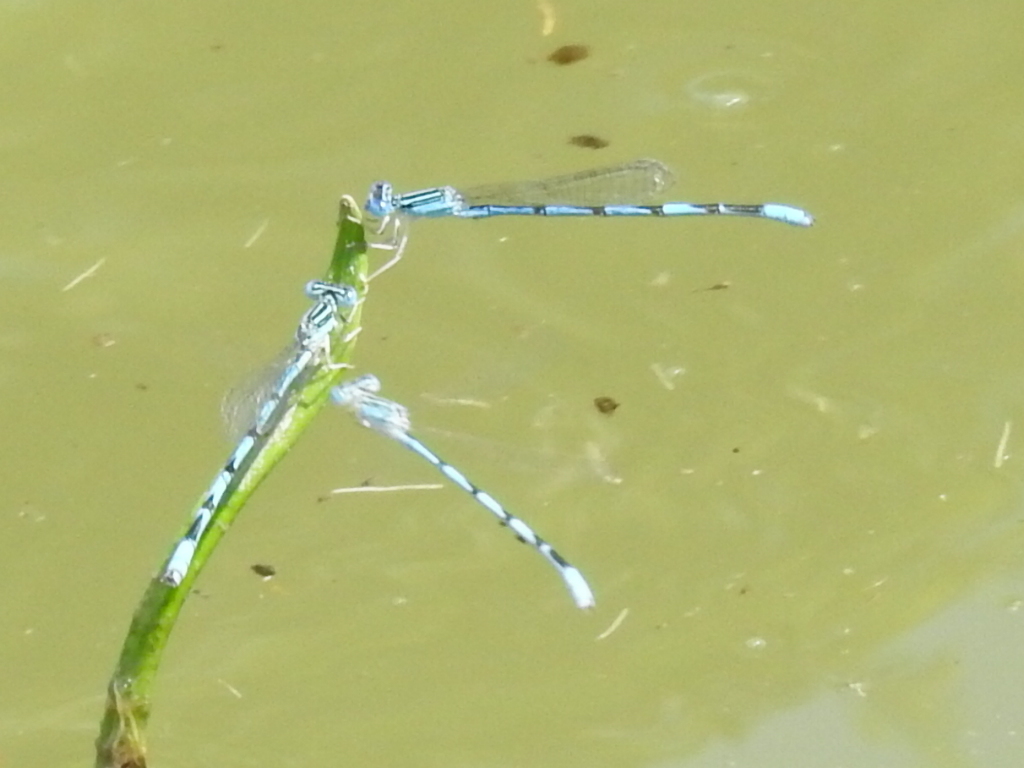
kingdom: Animalia
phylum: Arthropoda
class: Insecta
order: Odonata
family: Coenagrionidae
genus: Enallagma
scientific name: Enallagma basidens
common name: Double-striped bluet
